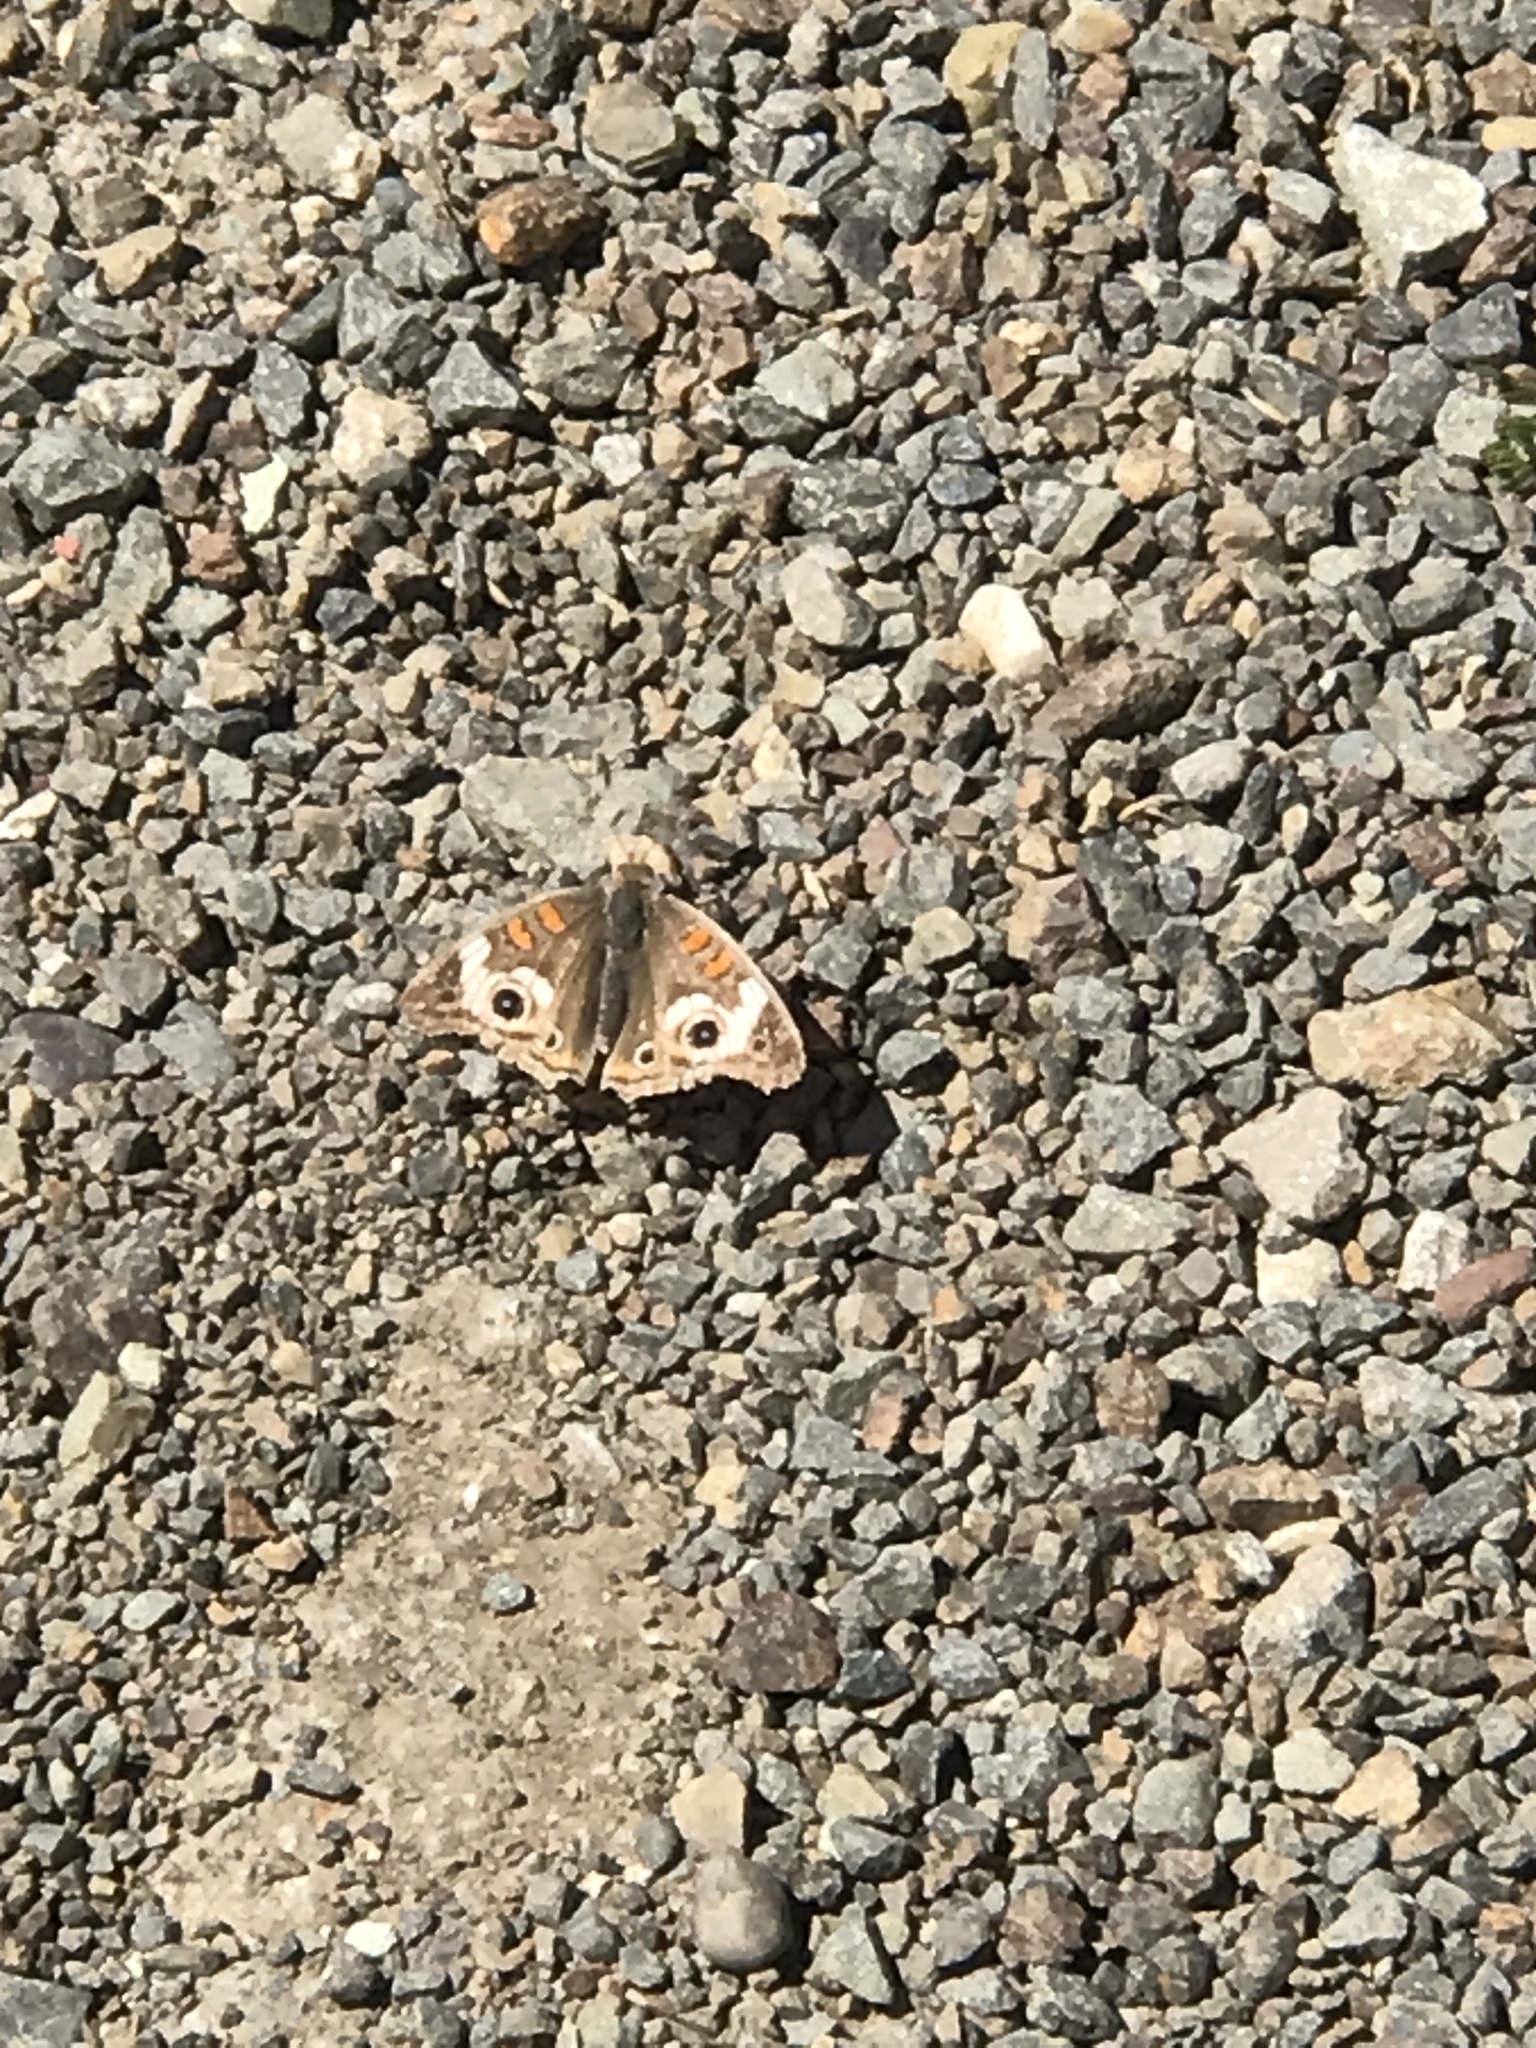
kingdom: Animalia
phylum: Arthropoda
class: Insecta
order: Lepidoptera
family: Nymphalidae
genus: Junonia
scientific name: Junonia grisea
